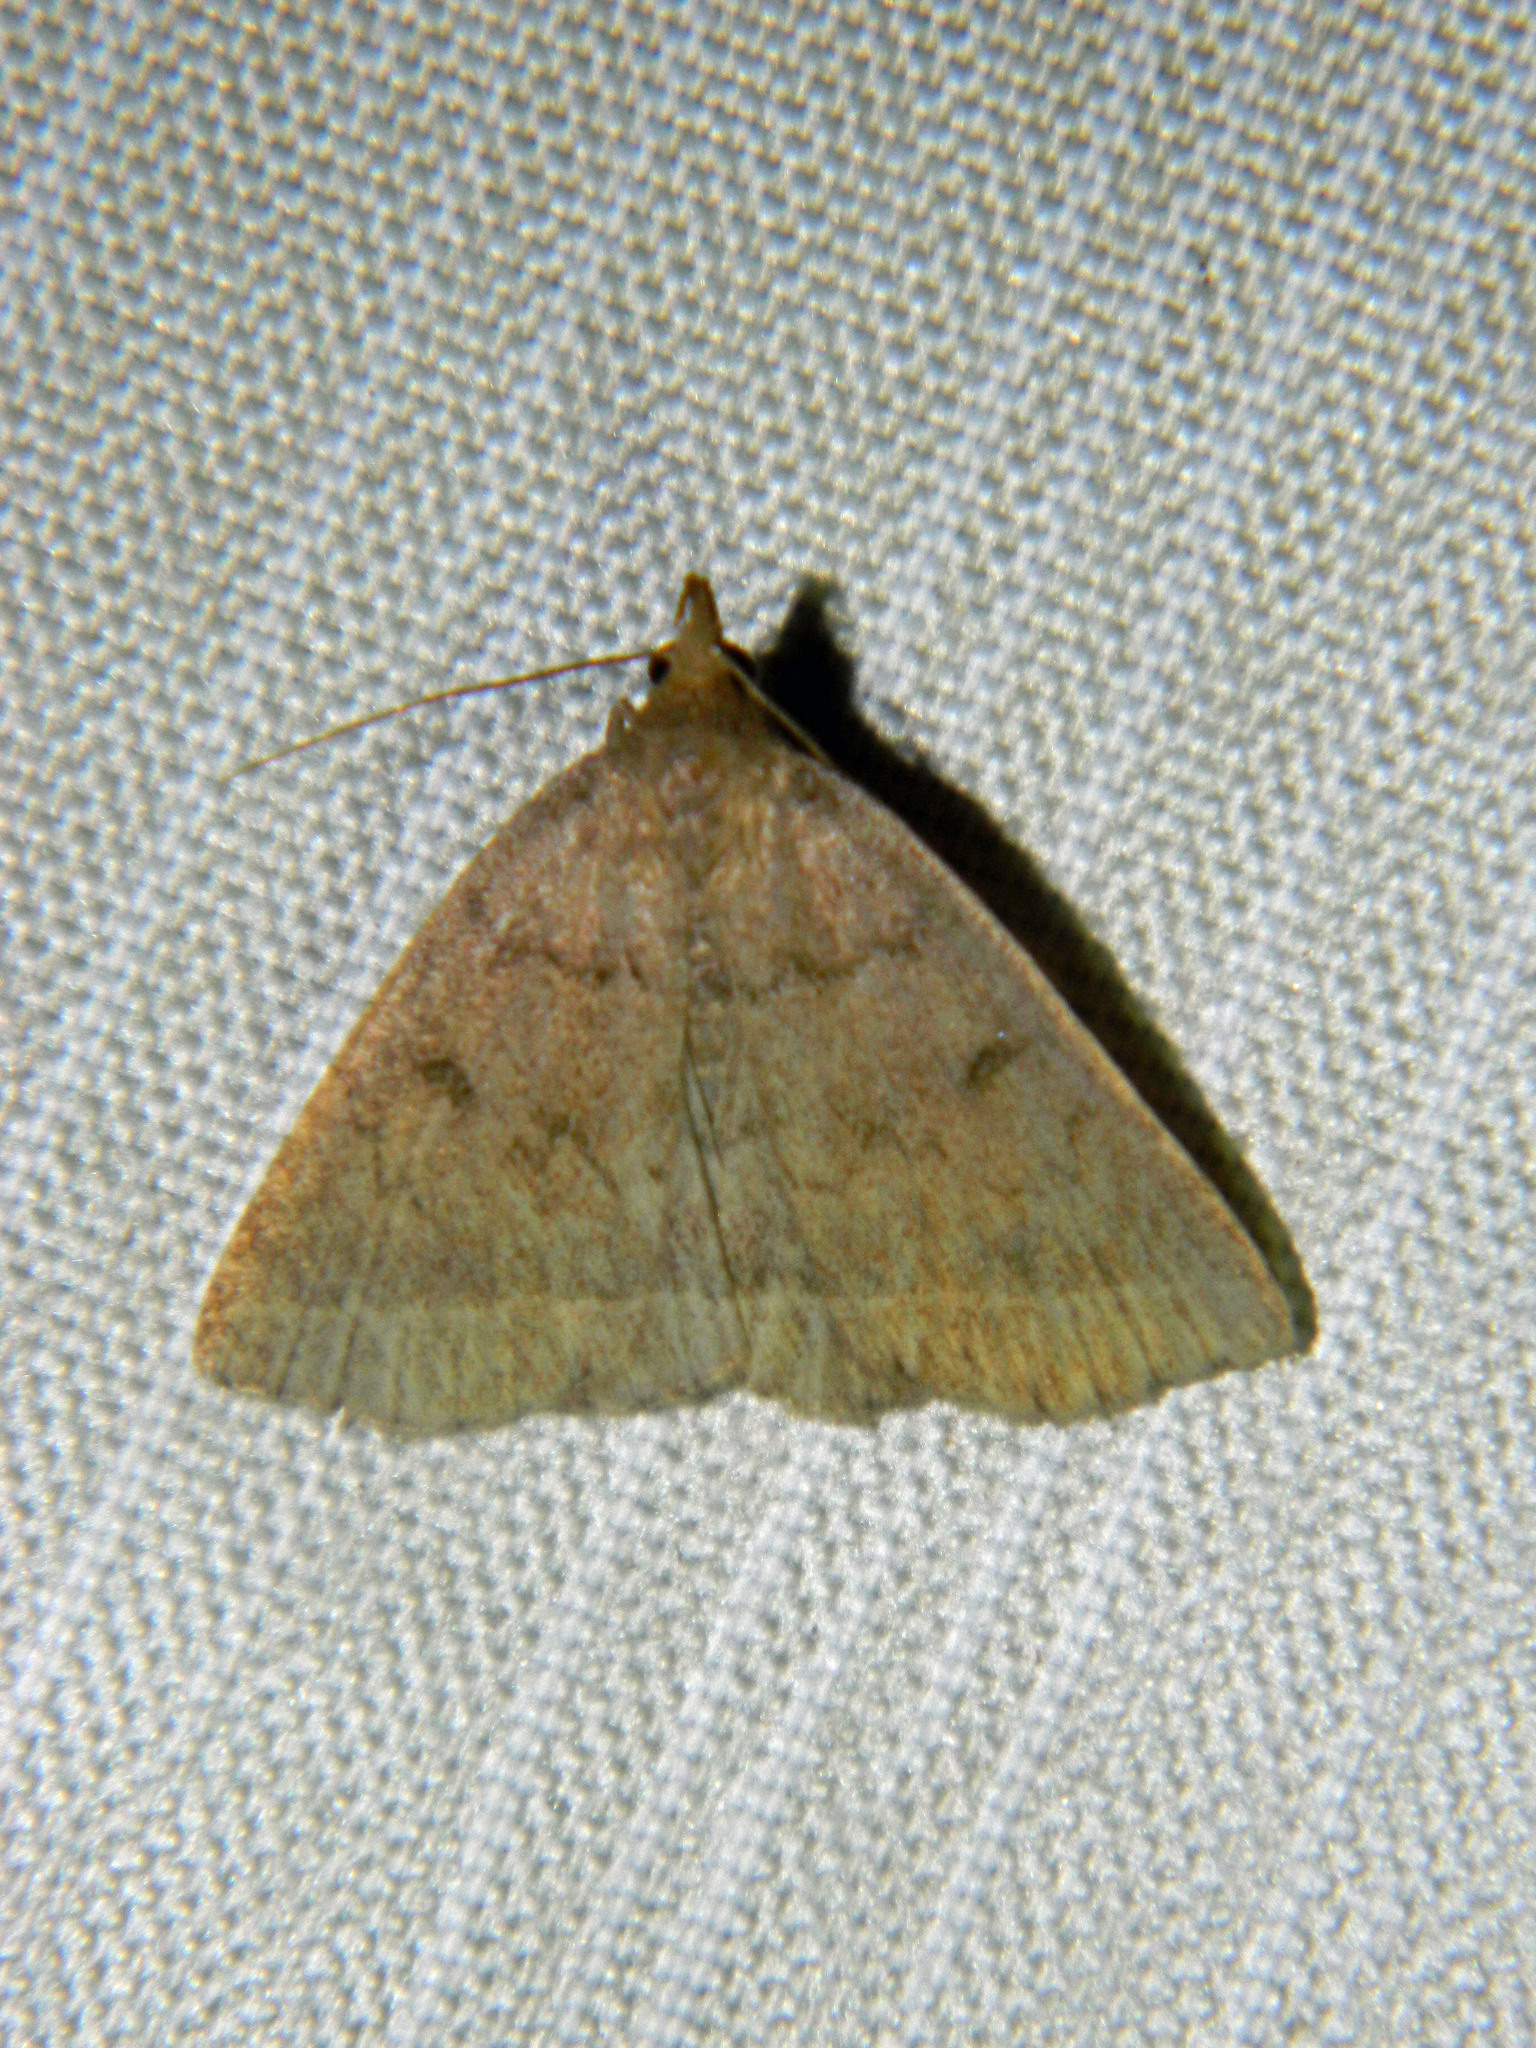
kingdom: Animalia
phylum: Arthropoda
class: Insecta
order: Lepidoptera
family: Erebidae
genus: Zanclognatha
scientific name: Zanclognatha jacchusalis
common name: Yellowish zanclognatha
